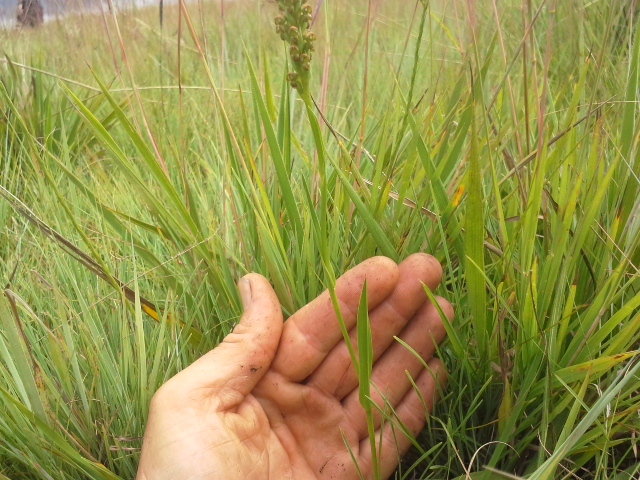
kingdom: Plantae
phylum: Tracheophyta
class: Liliopsida
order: Asparagales
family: Orchidaceae
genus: Brownleea
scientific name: Brownleea parviflora
